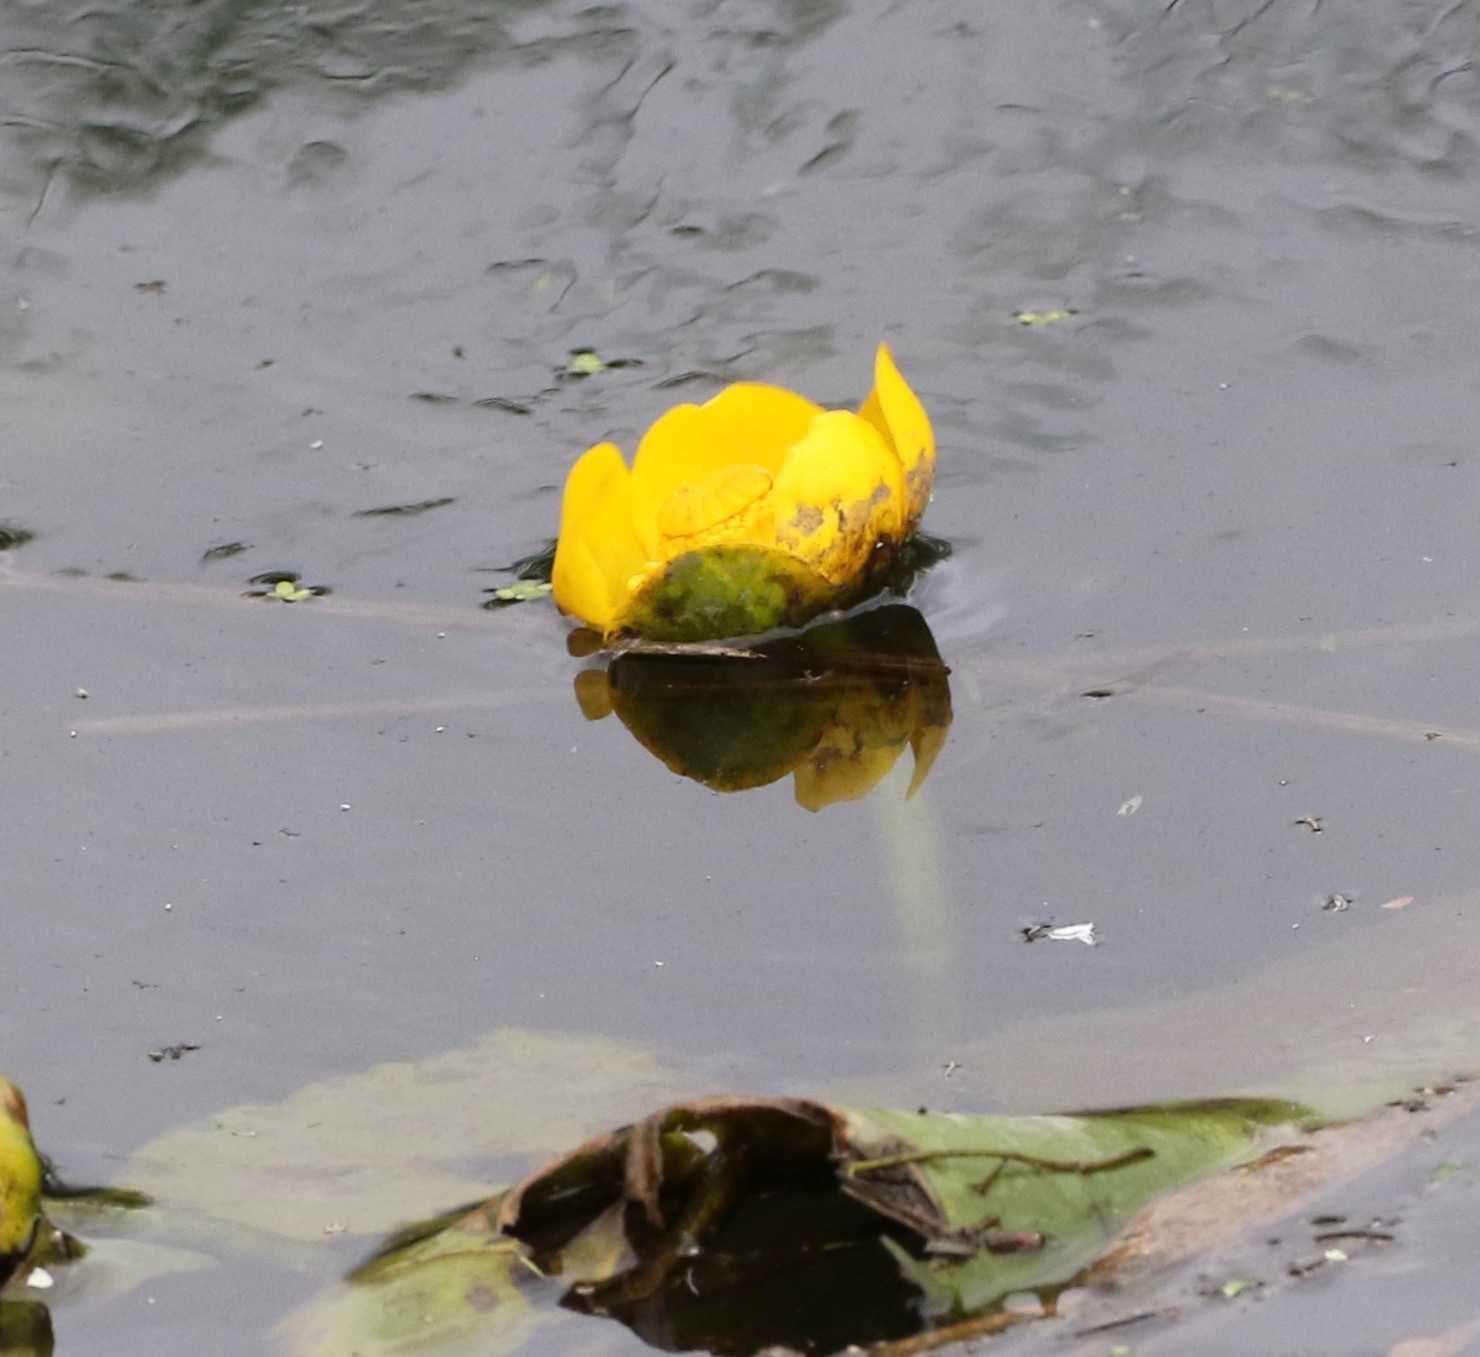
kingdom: Plantae
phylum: Tracheophyta
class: Magnoliopsida
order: Nymphaeales
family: Nymphaeaceae
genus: Nuphar
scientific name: Nuphar lutea
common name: Yellow water-lily
